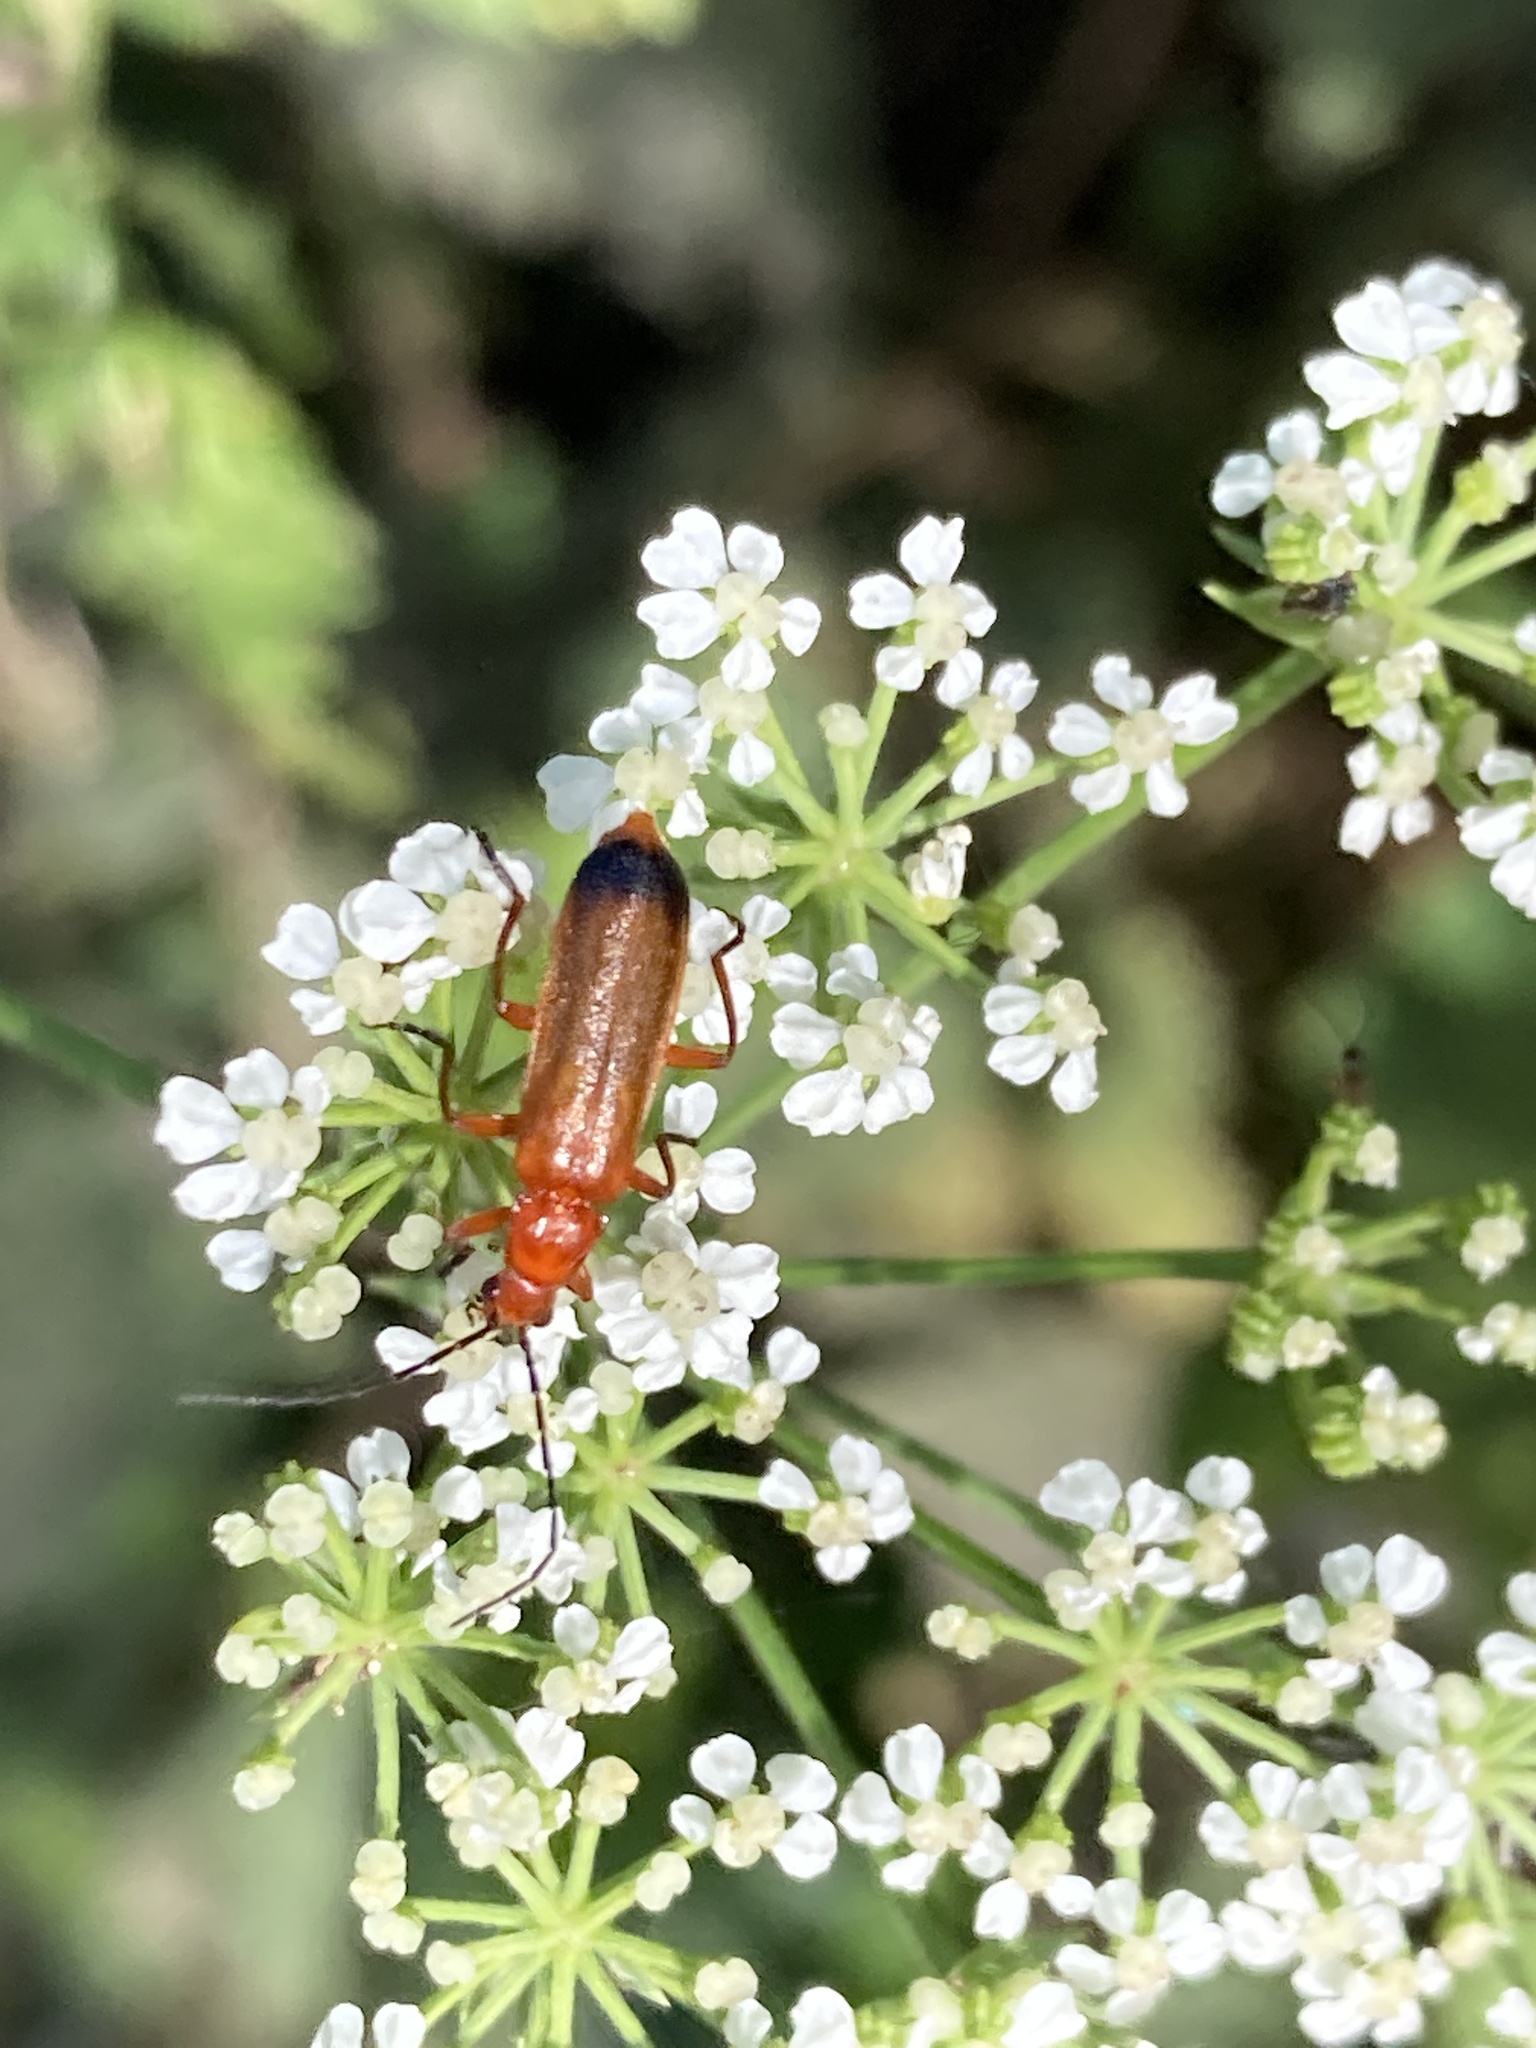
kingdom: Animalia
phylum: Arthropoda
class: Insecta
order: Coleoptera
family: Cantharidae
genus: Rhagonycha
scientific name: Rhagonycha fulva
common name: Common red soldier beetle
